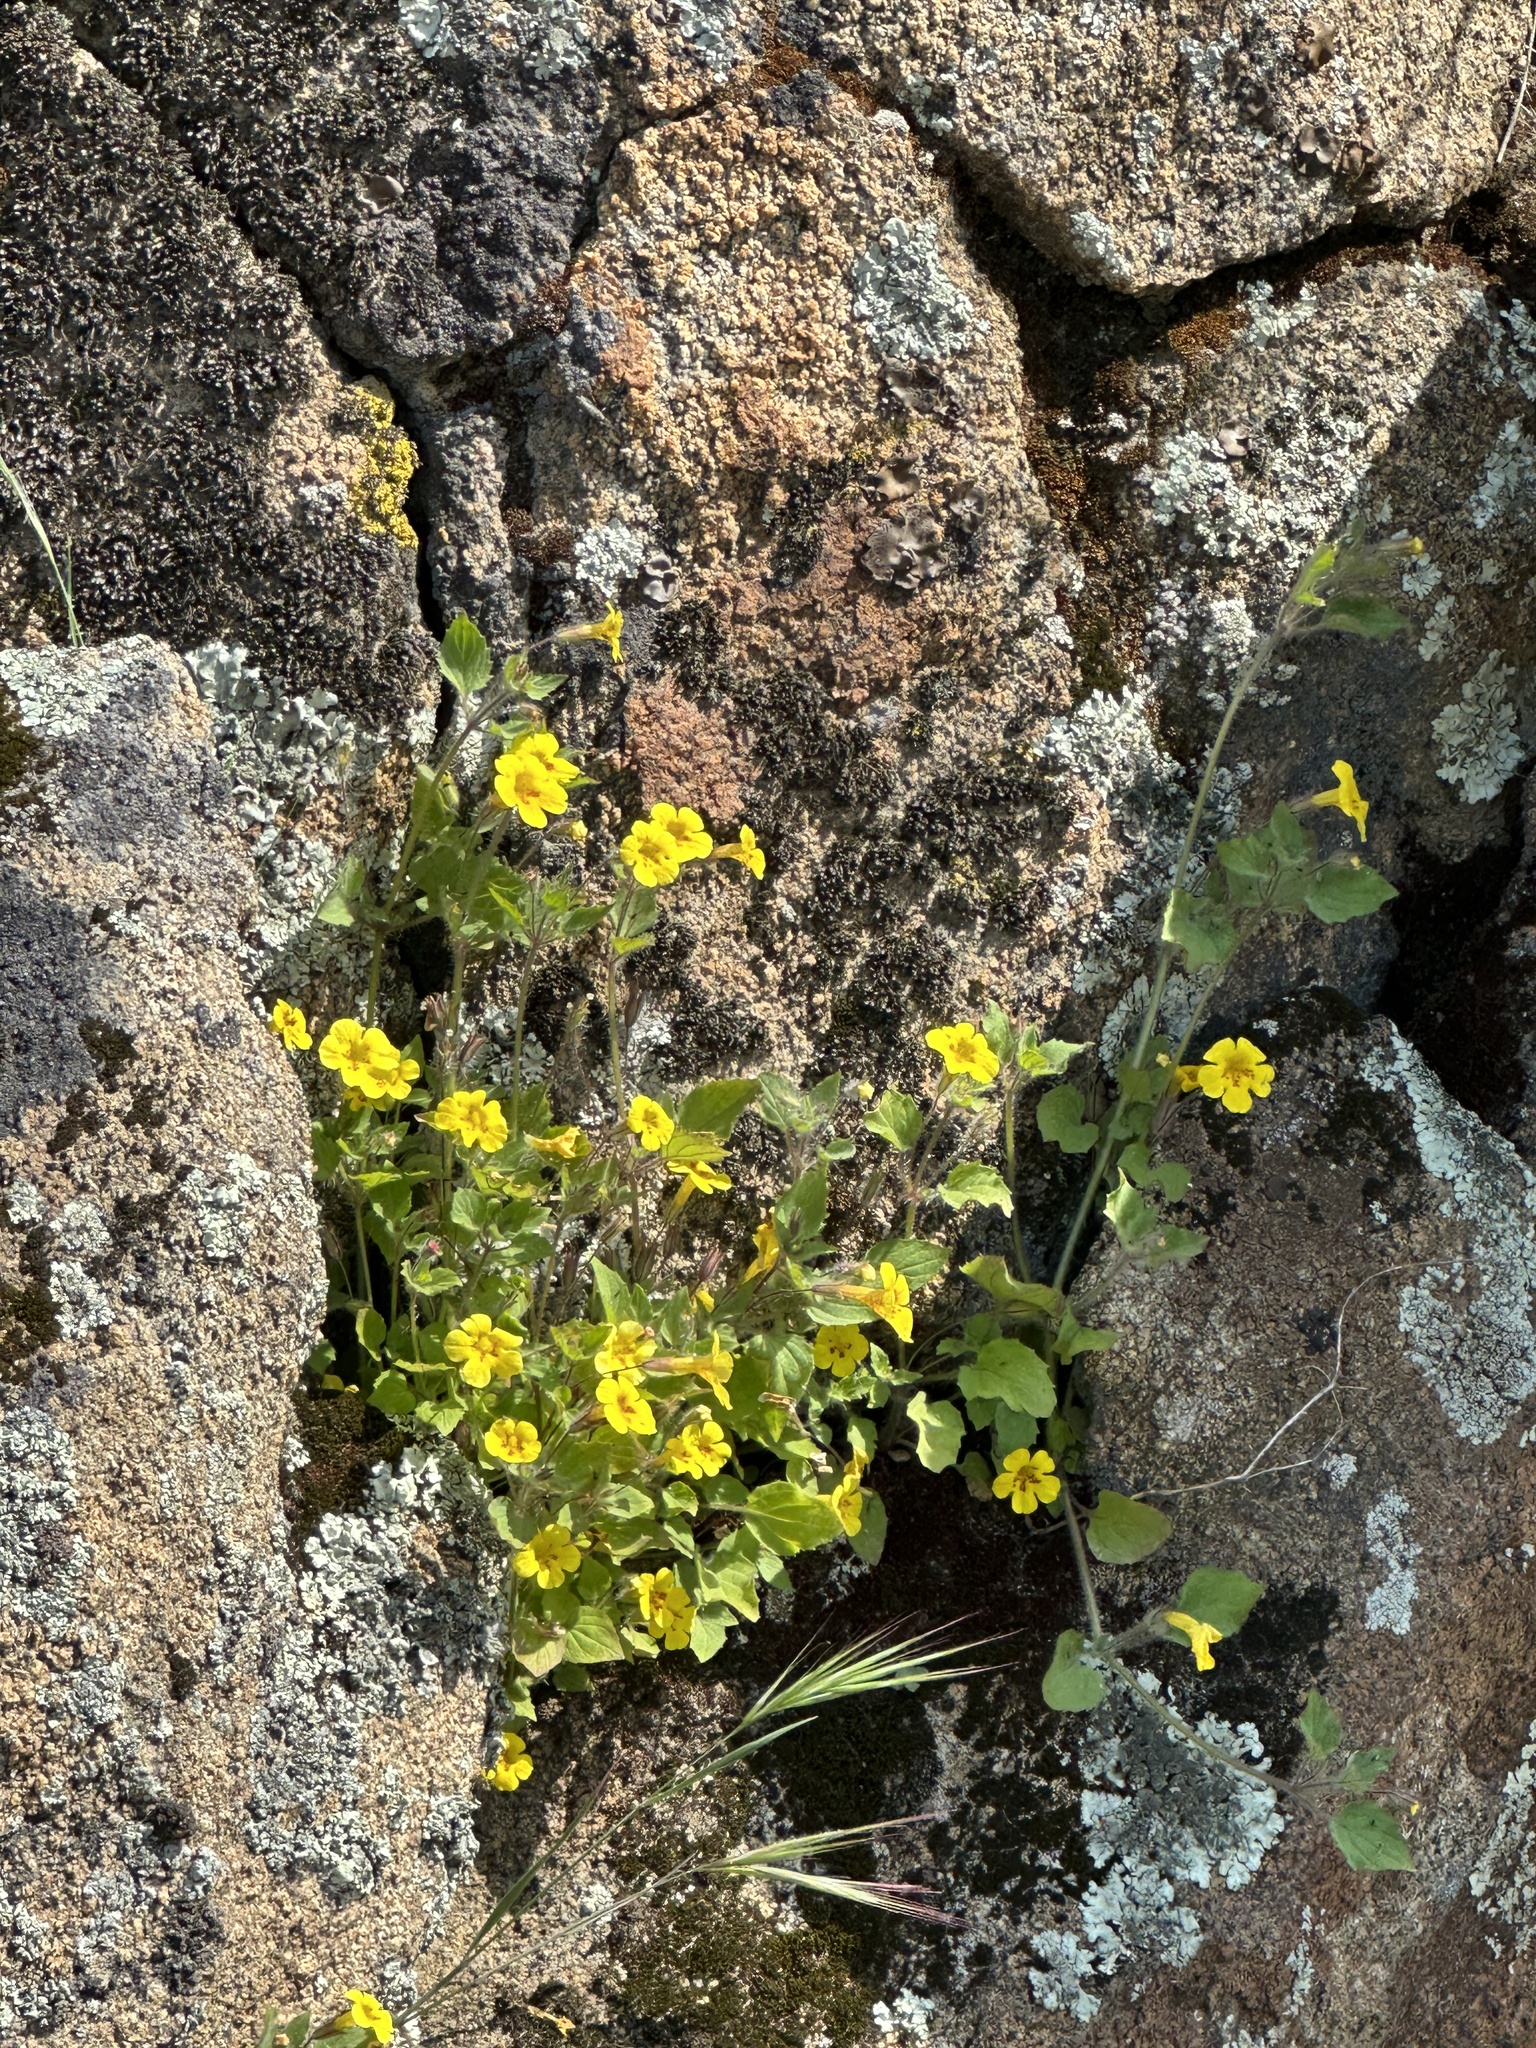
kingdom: Plantae
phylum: Tracheophyta
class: Magnoliopsida
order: Lamiales
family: Phrymaceae
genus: Erythranthe
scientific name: Erythranthe geniculata
